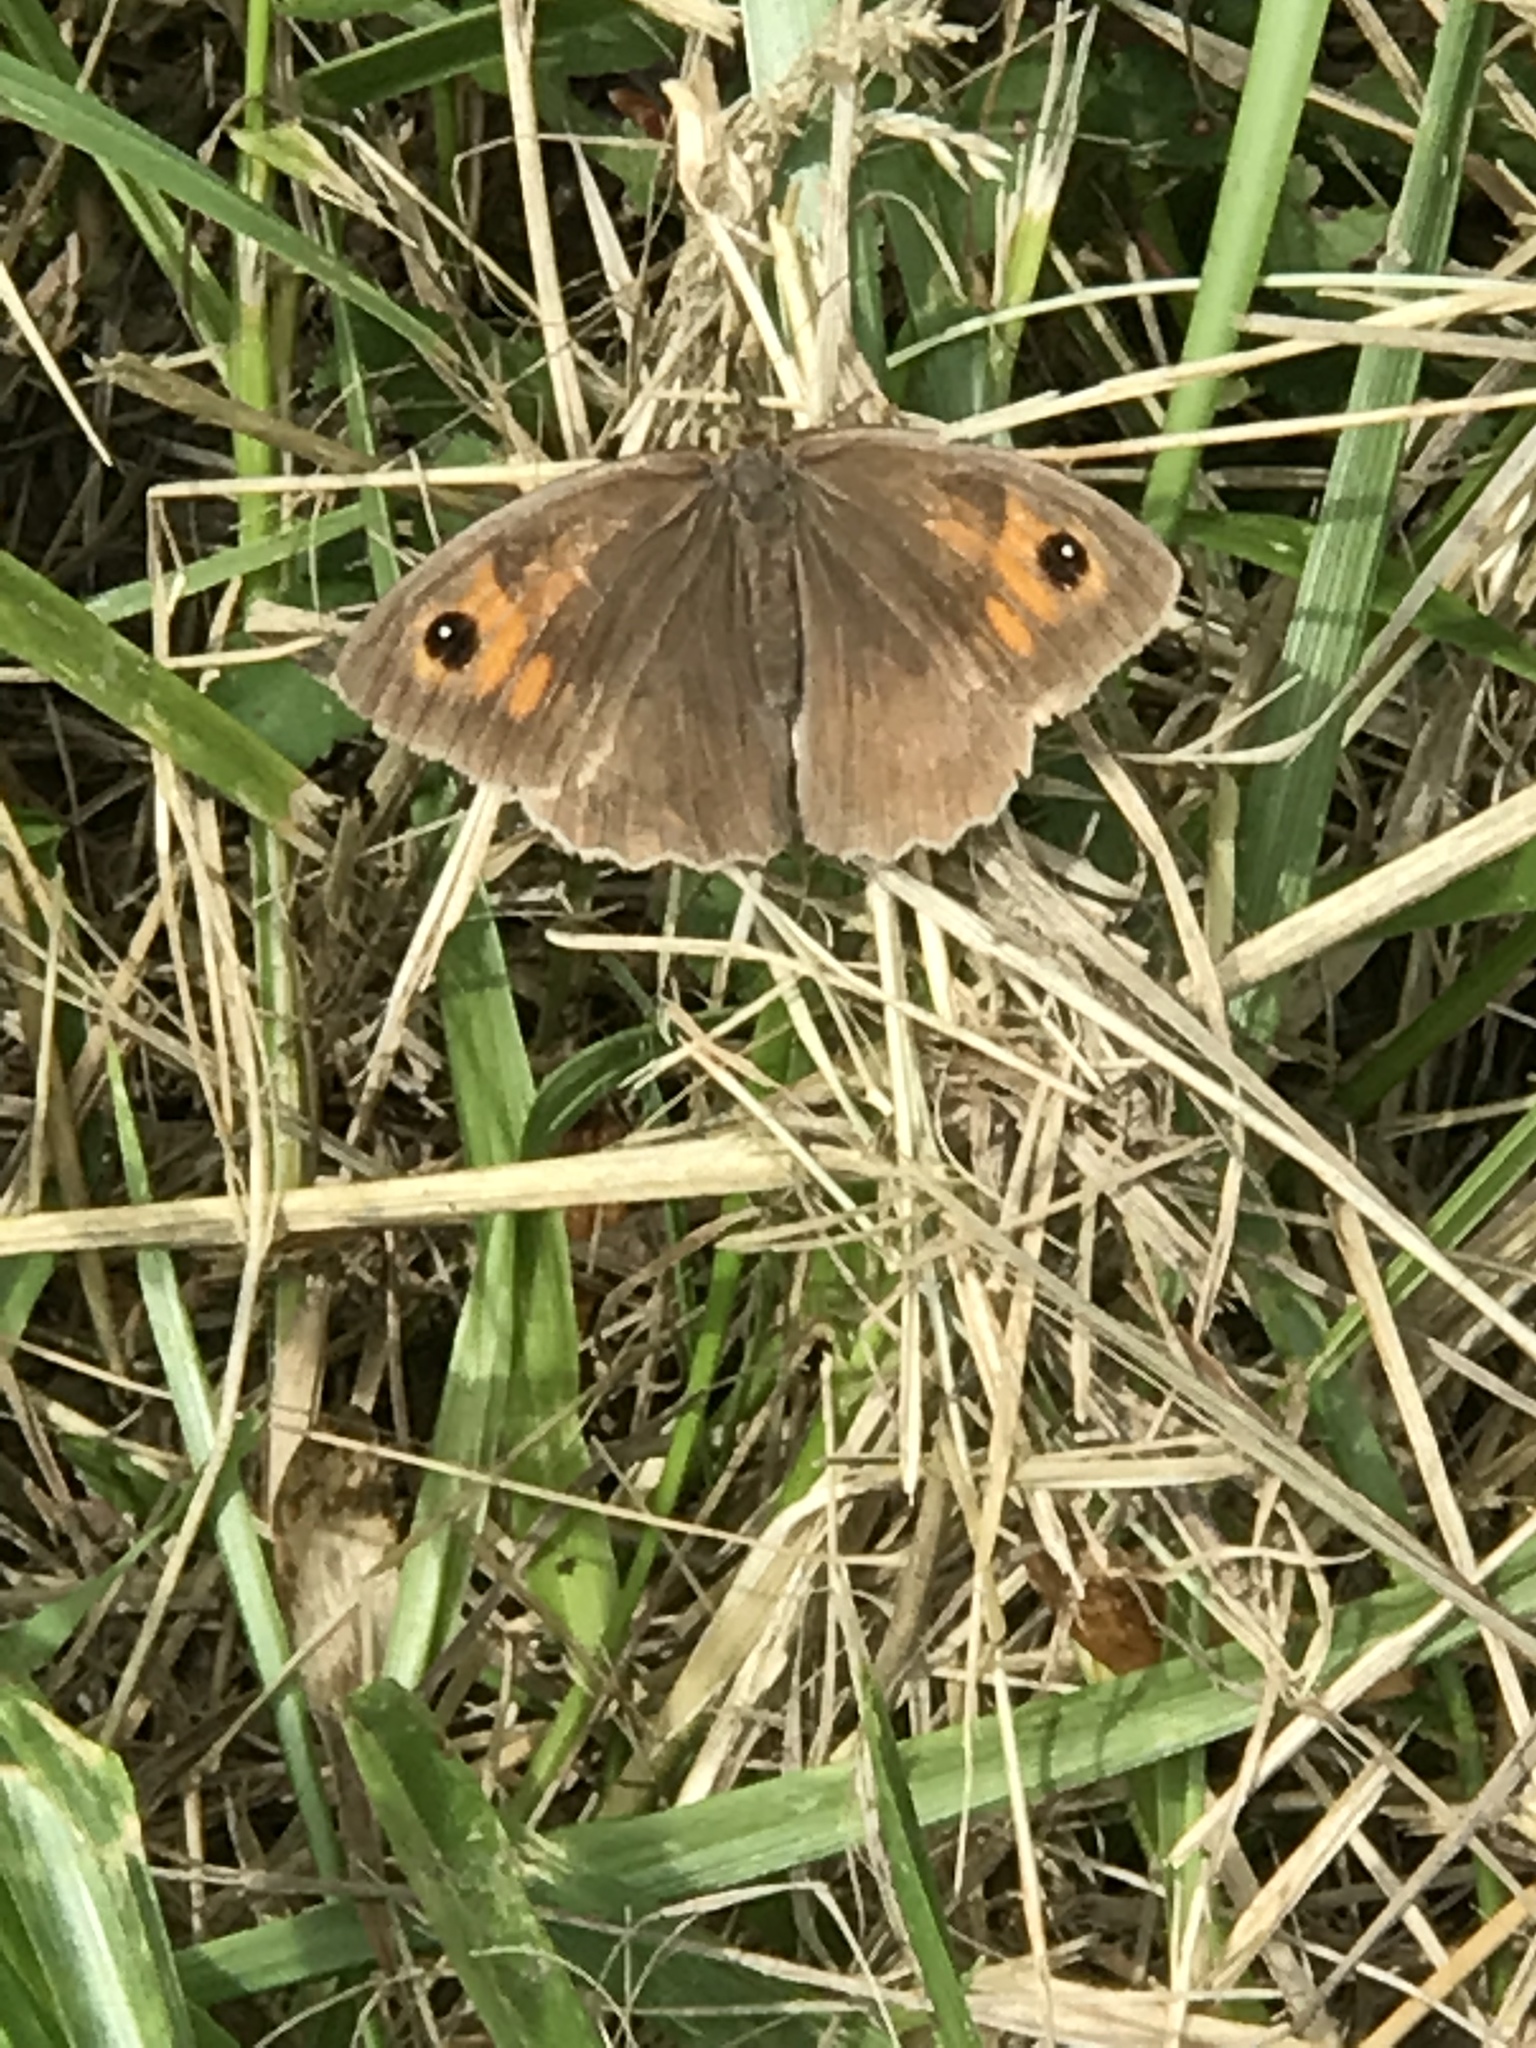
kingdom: Animalia
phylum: Arthropoda
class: Insecta
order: Lepidoptera
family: Nymphalidae
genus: Maniola
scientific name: Maniola jurtina
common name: Meadow brown
